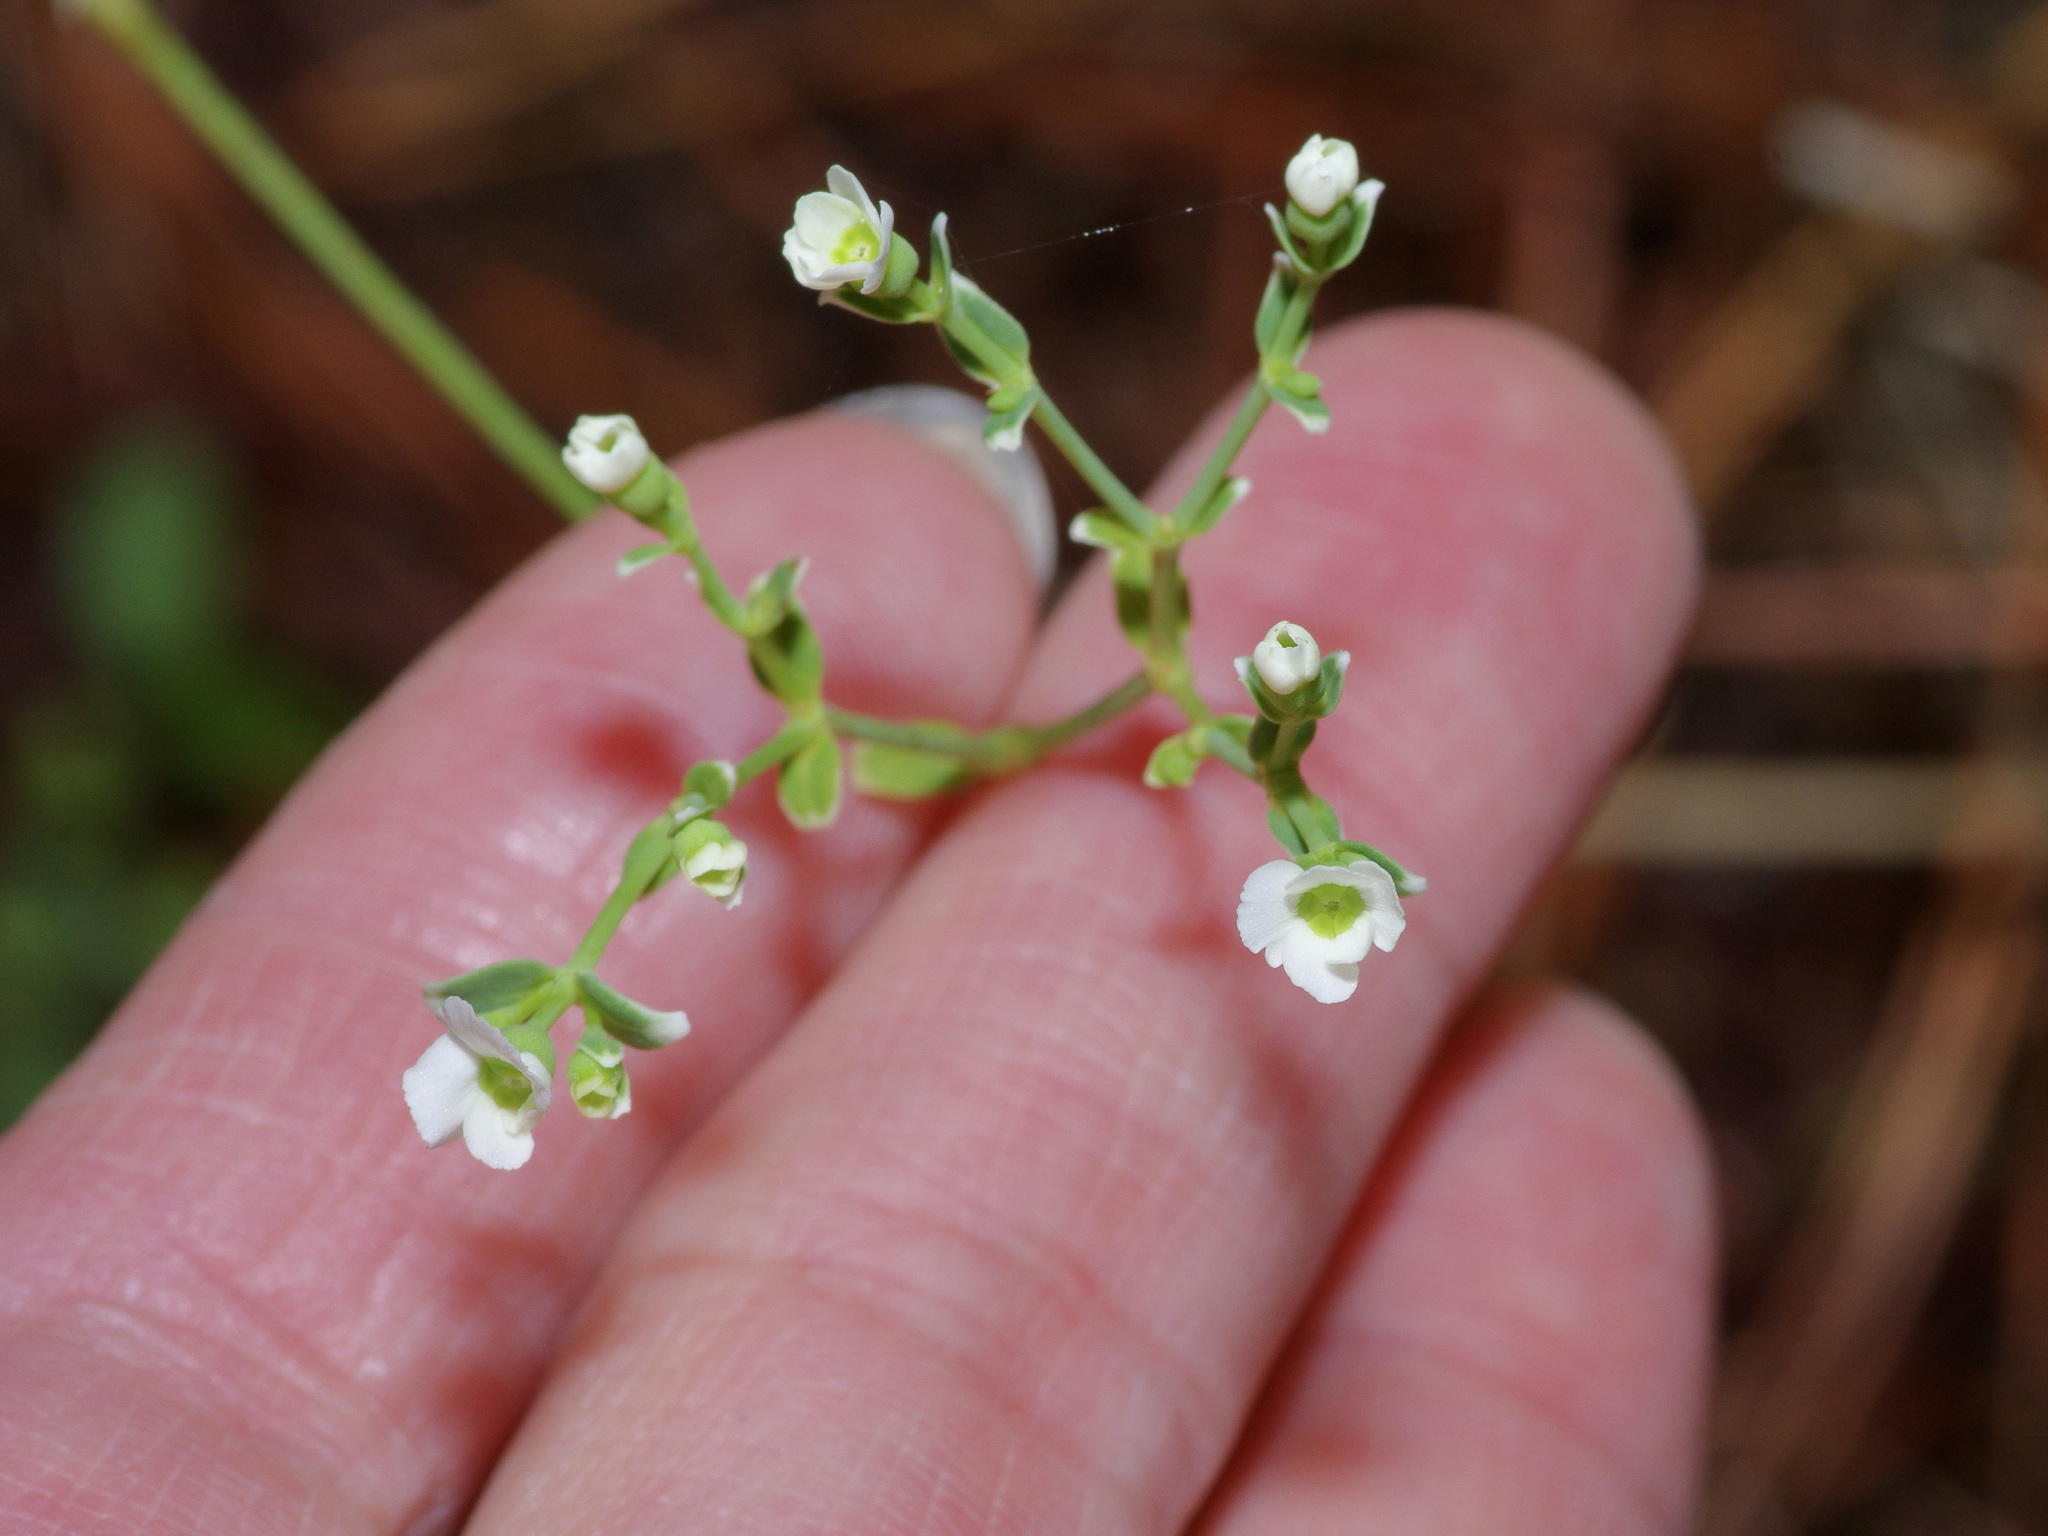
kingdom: Plantae
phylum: Tracheophyta
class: Magnoliopsida
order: Malpighiales
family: Euphorbiaceae
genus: Euphorbia
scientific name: Euphorbia corollata
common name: Flowering spurge
